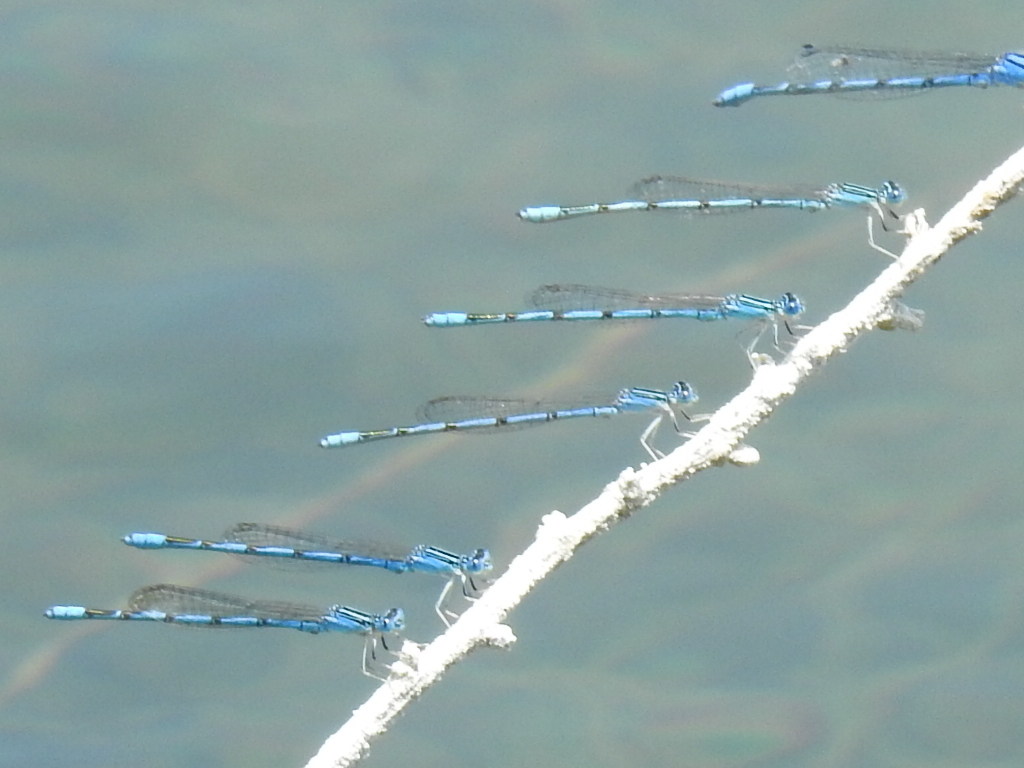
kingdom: Animalia
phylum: Arthropoda
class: Insecta
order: Odonata
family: Coenagrionidae
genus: Enallagma
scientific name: Enallagma basidens
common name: Double-striped bluet
